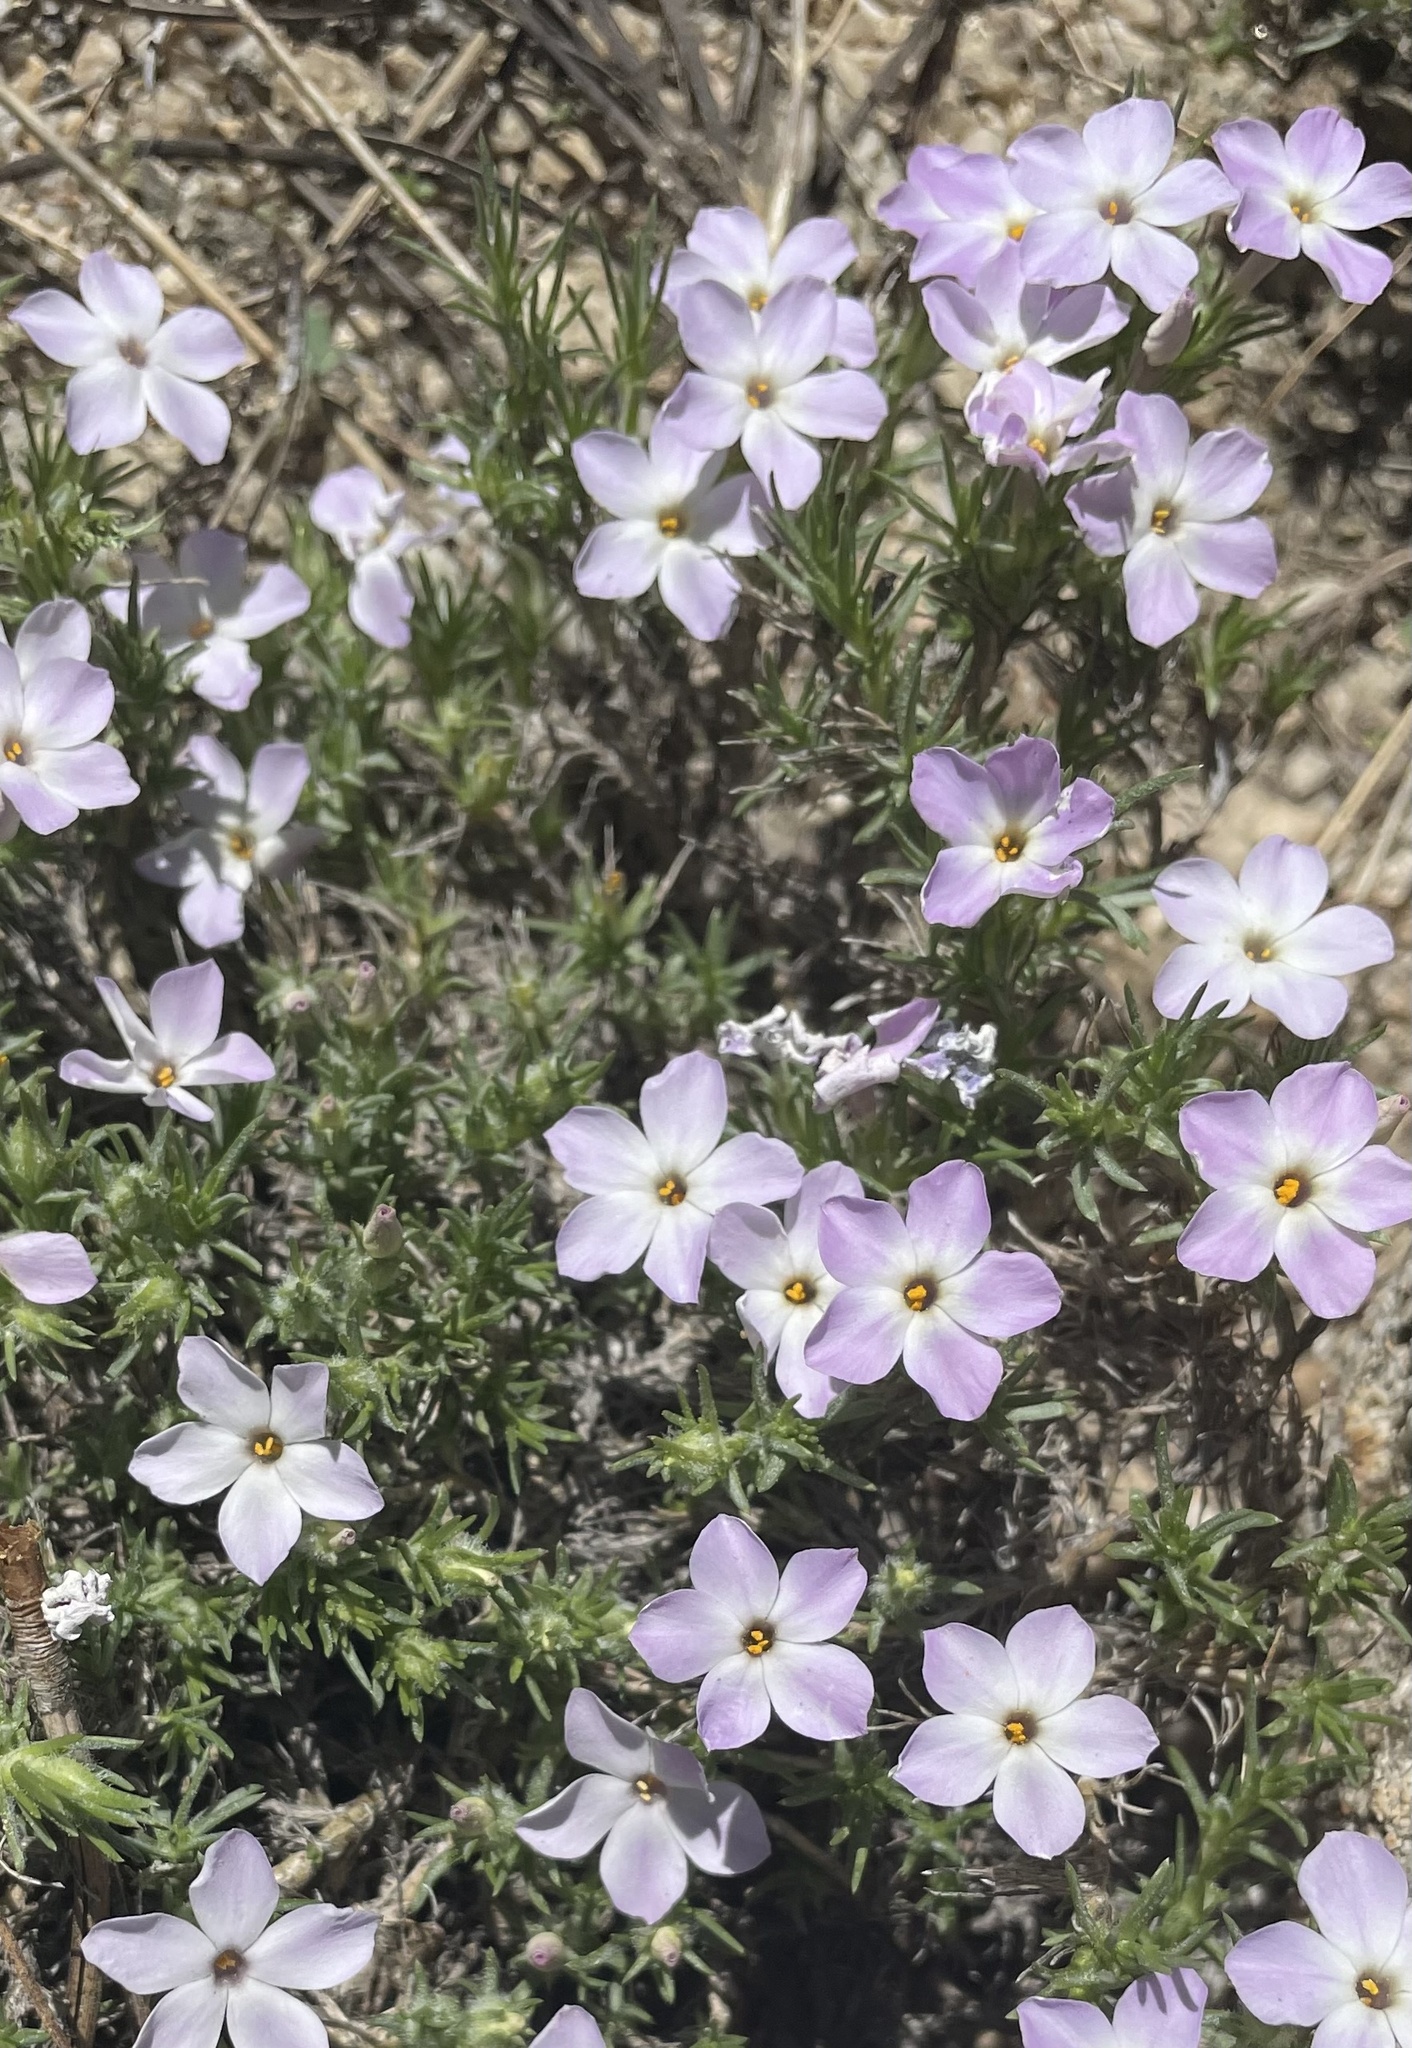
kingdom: Plantae
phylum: Tracheophyta
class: Magnoliopsida
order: Ericales
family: Polemoniaceae
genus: Phlox
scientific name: Phlox diffusa
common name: Mat phlox
